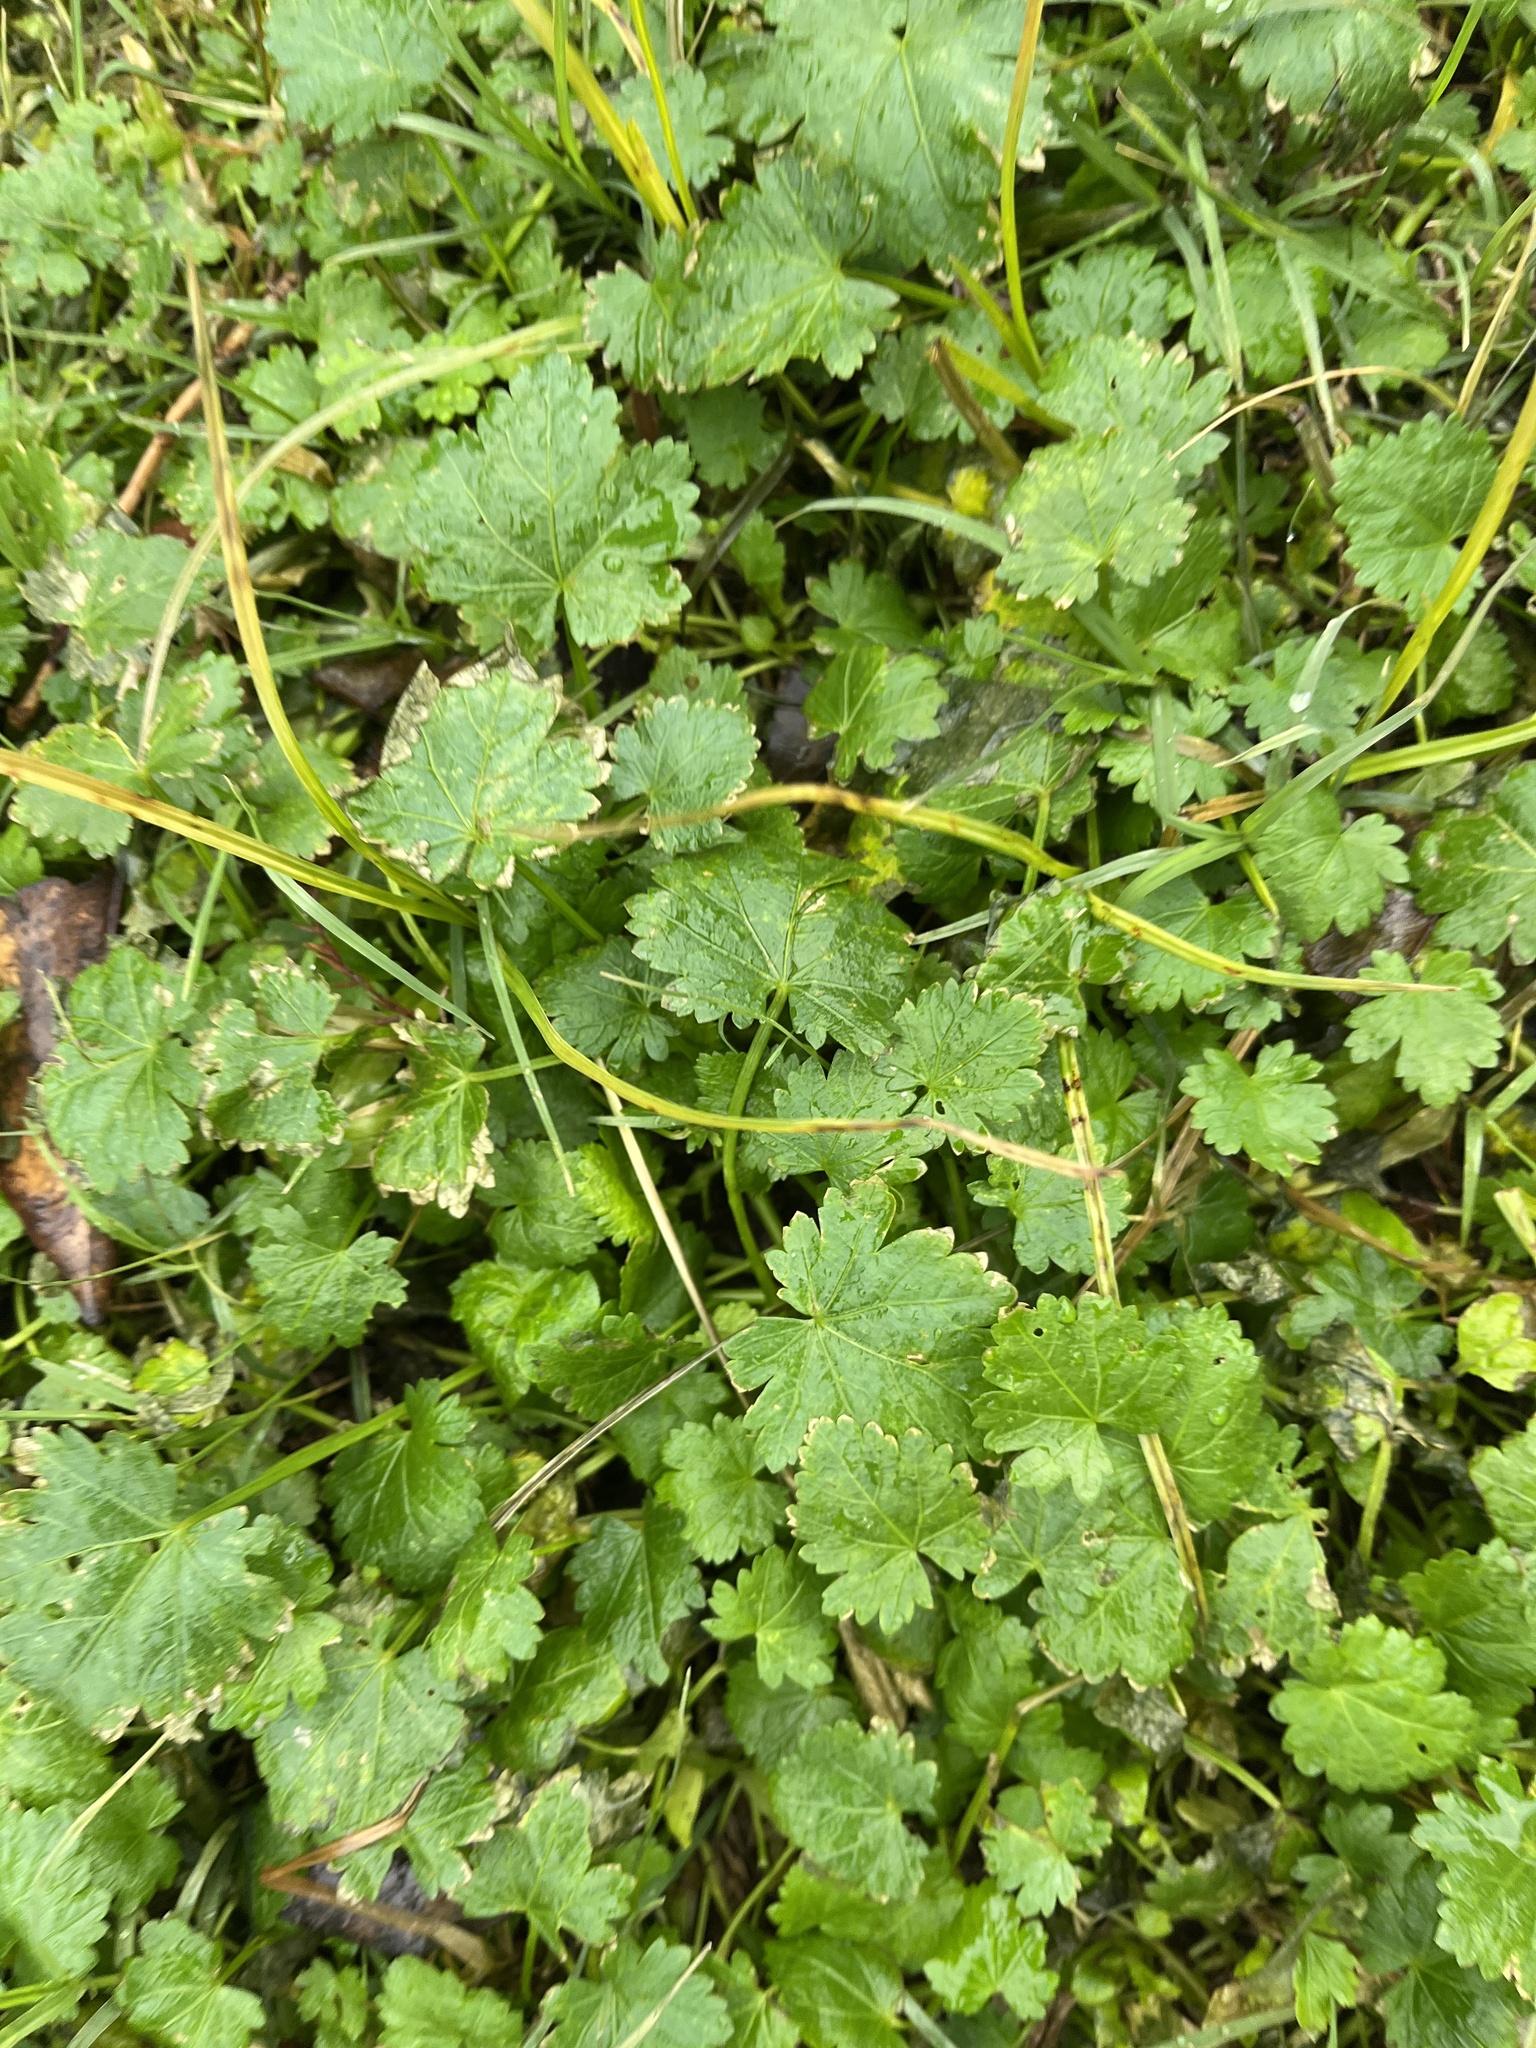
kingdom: Plantae
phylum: Tracheophyta
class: Magnoliopsida
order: Malvales
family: Malvaceae
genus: Modiola
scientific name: Modiola caroliniana
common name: Carolina bristlemallow
